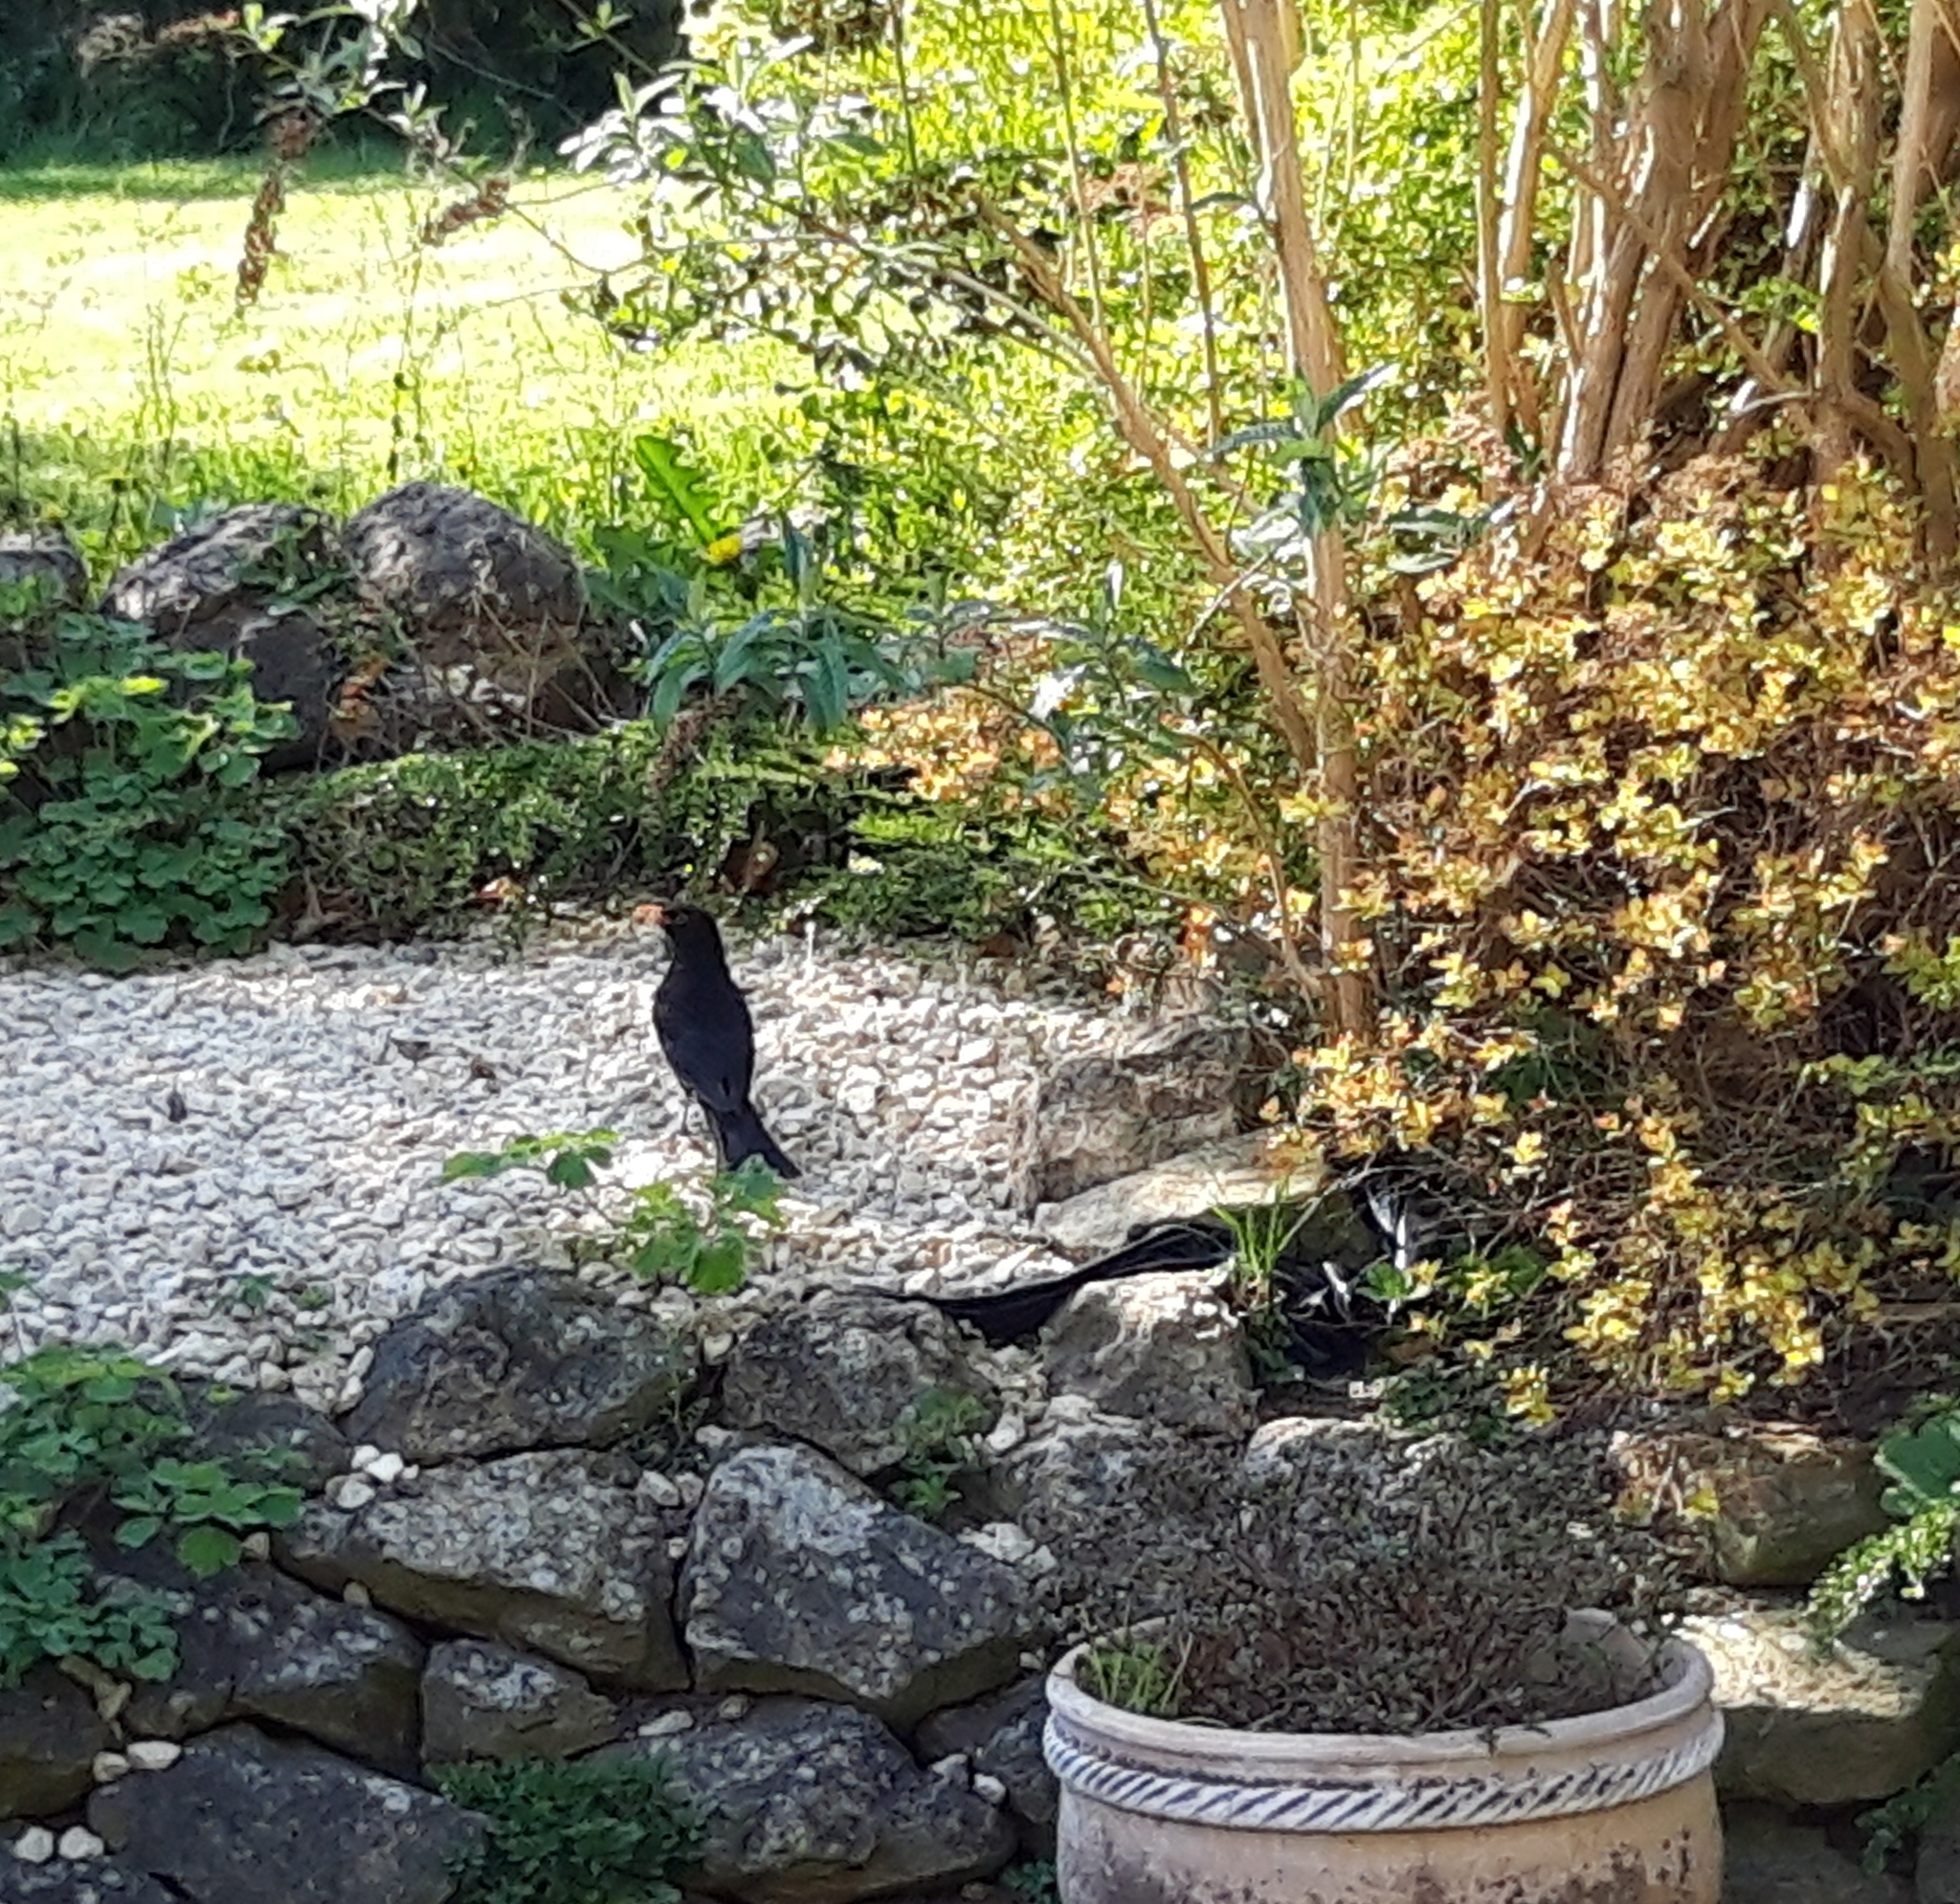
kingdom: Animalia
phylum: Chordata
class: Aves
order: Passeriformes
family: Turdidae
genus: Turdus
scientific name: Turdus merula
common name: Common blackbird
